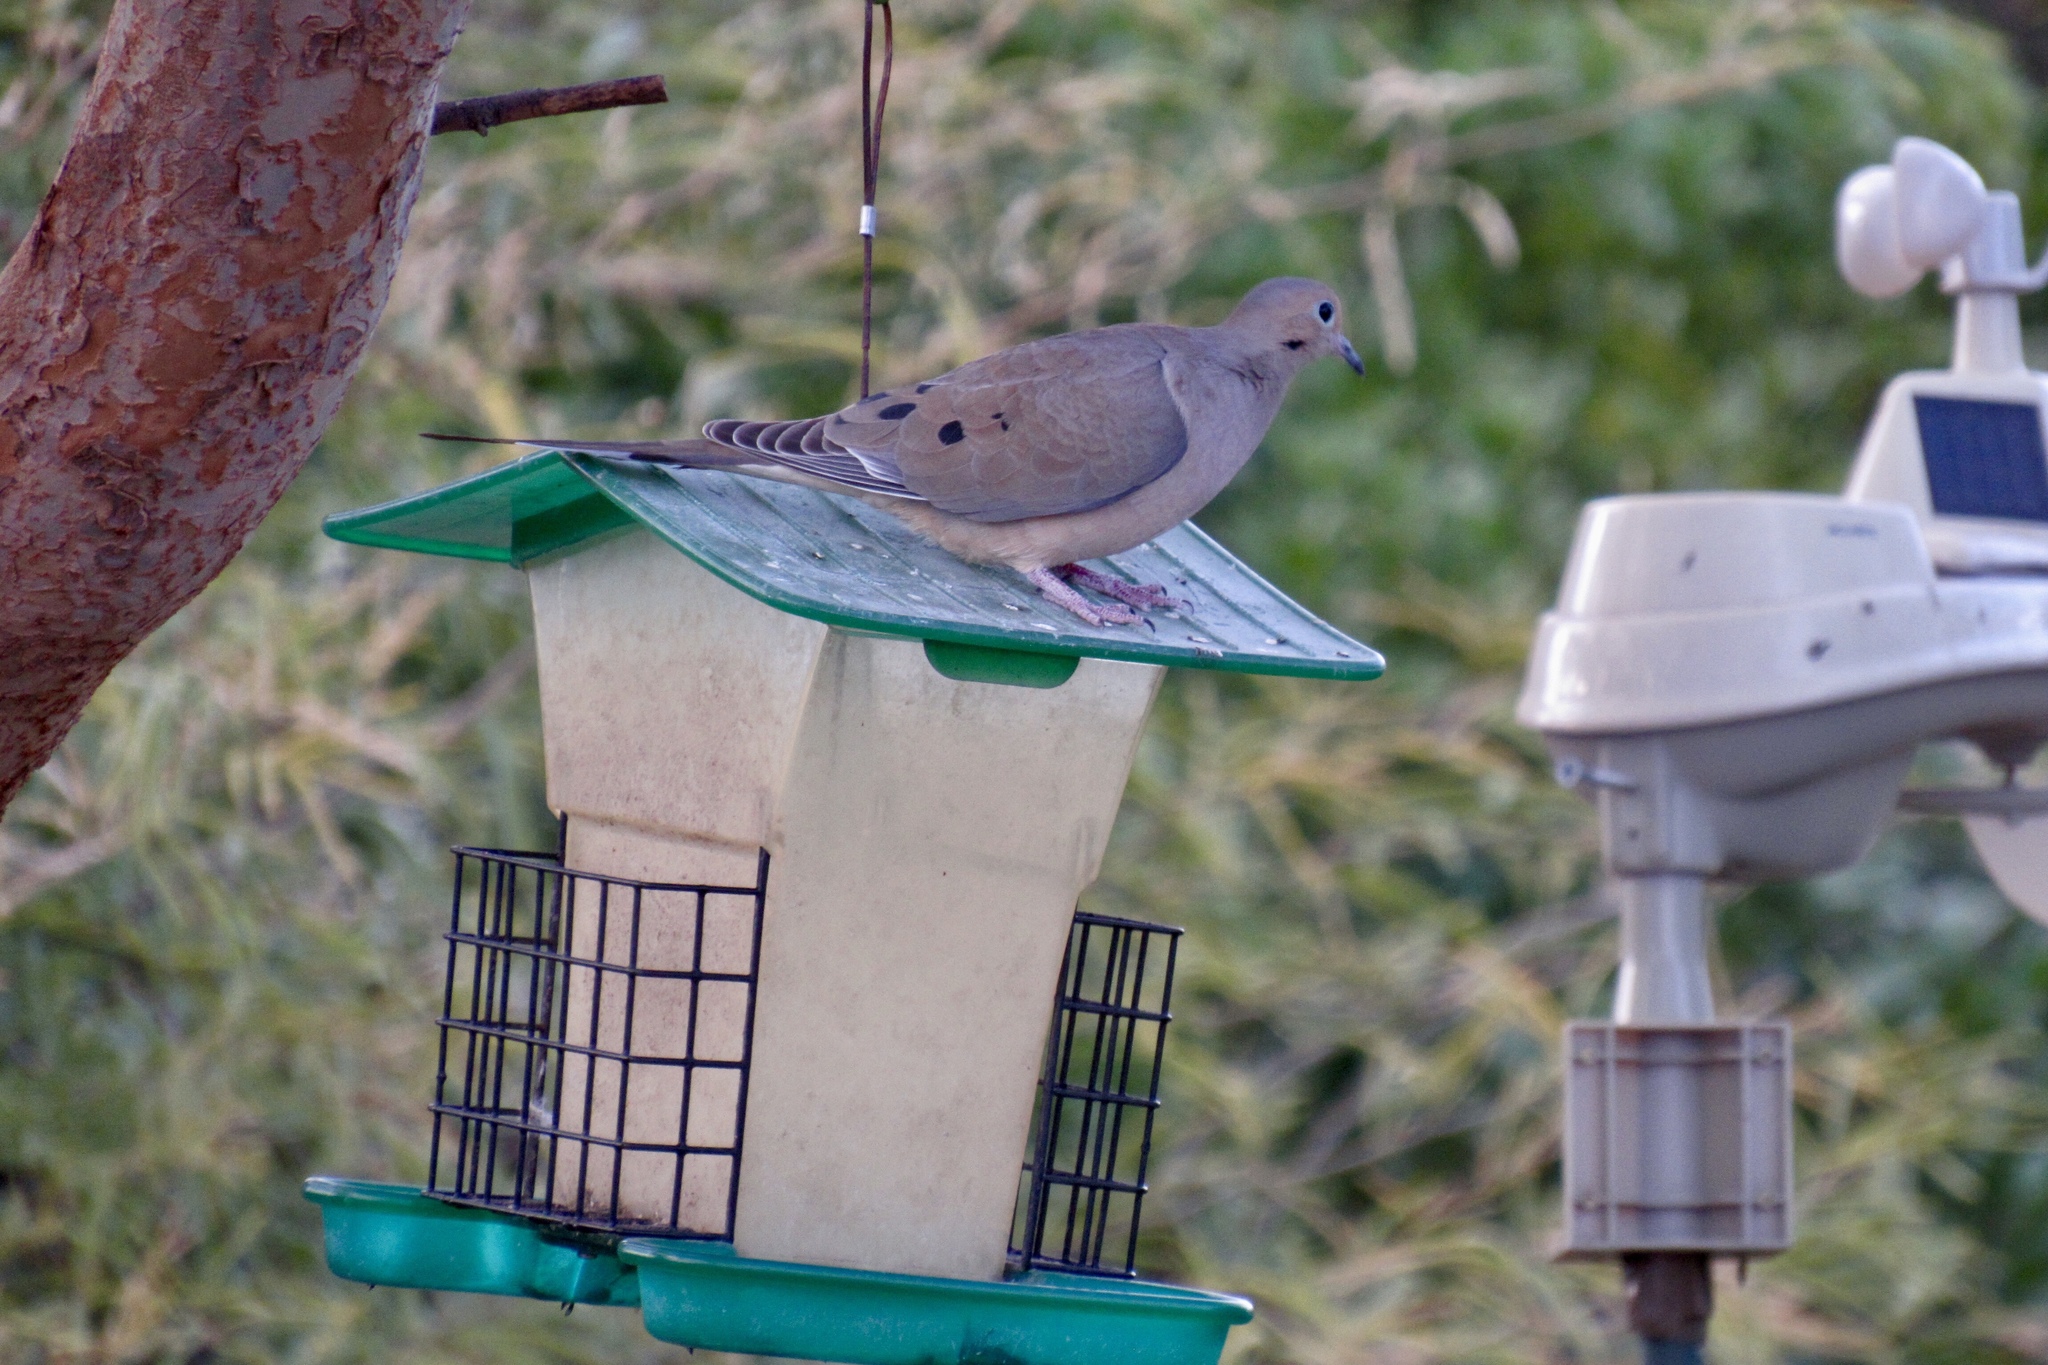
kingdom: Animalia
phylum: Chordata
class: Aves
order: Columbiformes
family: Columbidae
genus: Zenaida
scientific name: Zenaida macroura
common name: Mourning dove
